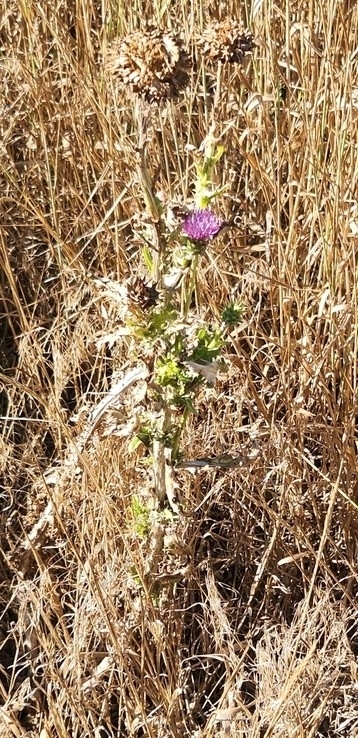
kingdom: Plantae
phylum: Tracheophyta
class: Magnoliopsida
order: Asterales
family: Asteraceae
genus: Onopordum
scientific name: Onopordum acanthium
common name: Scotch thistle
